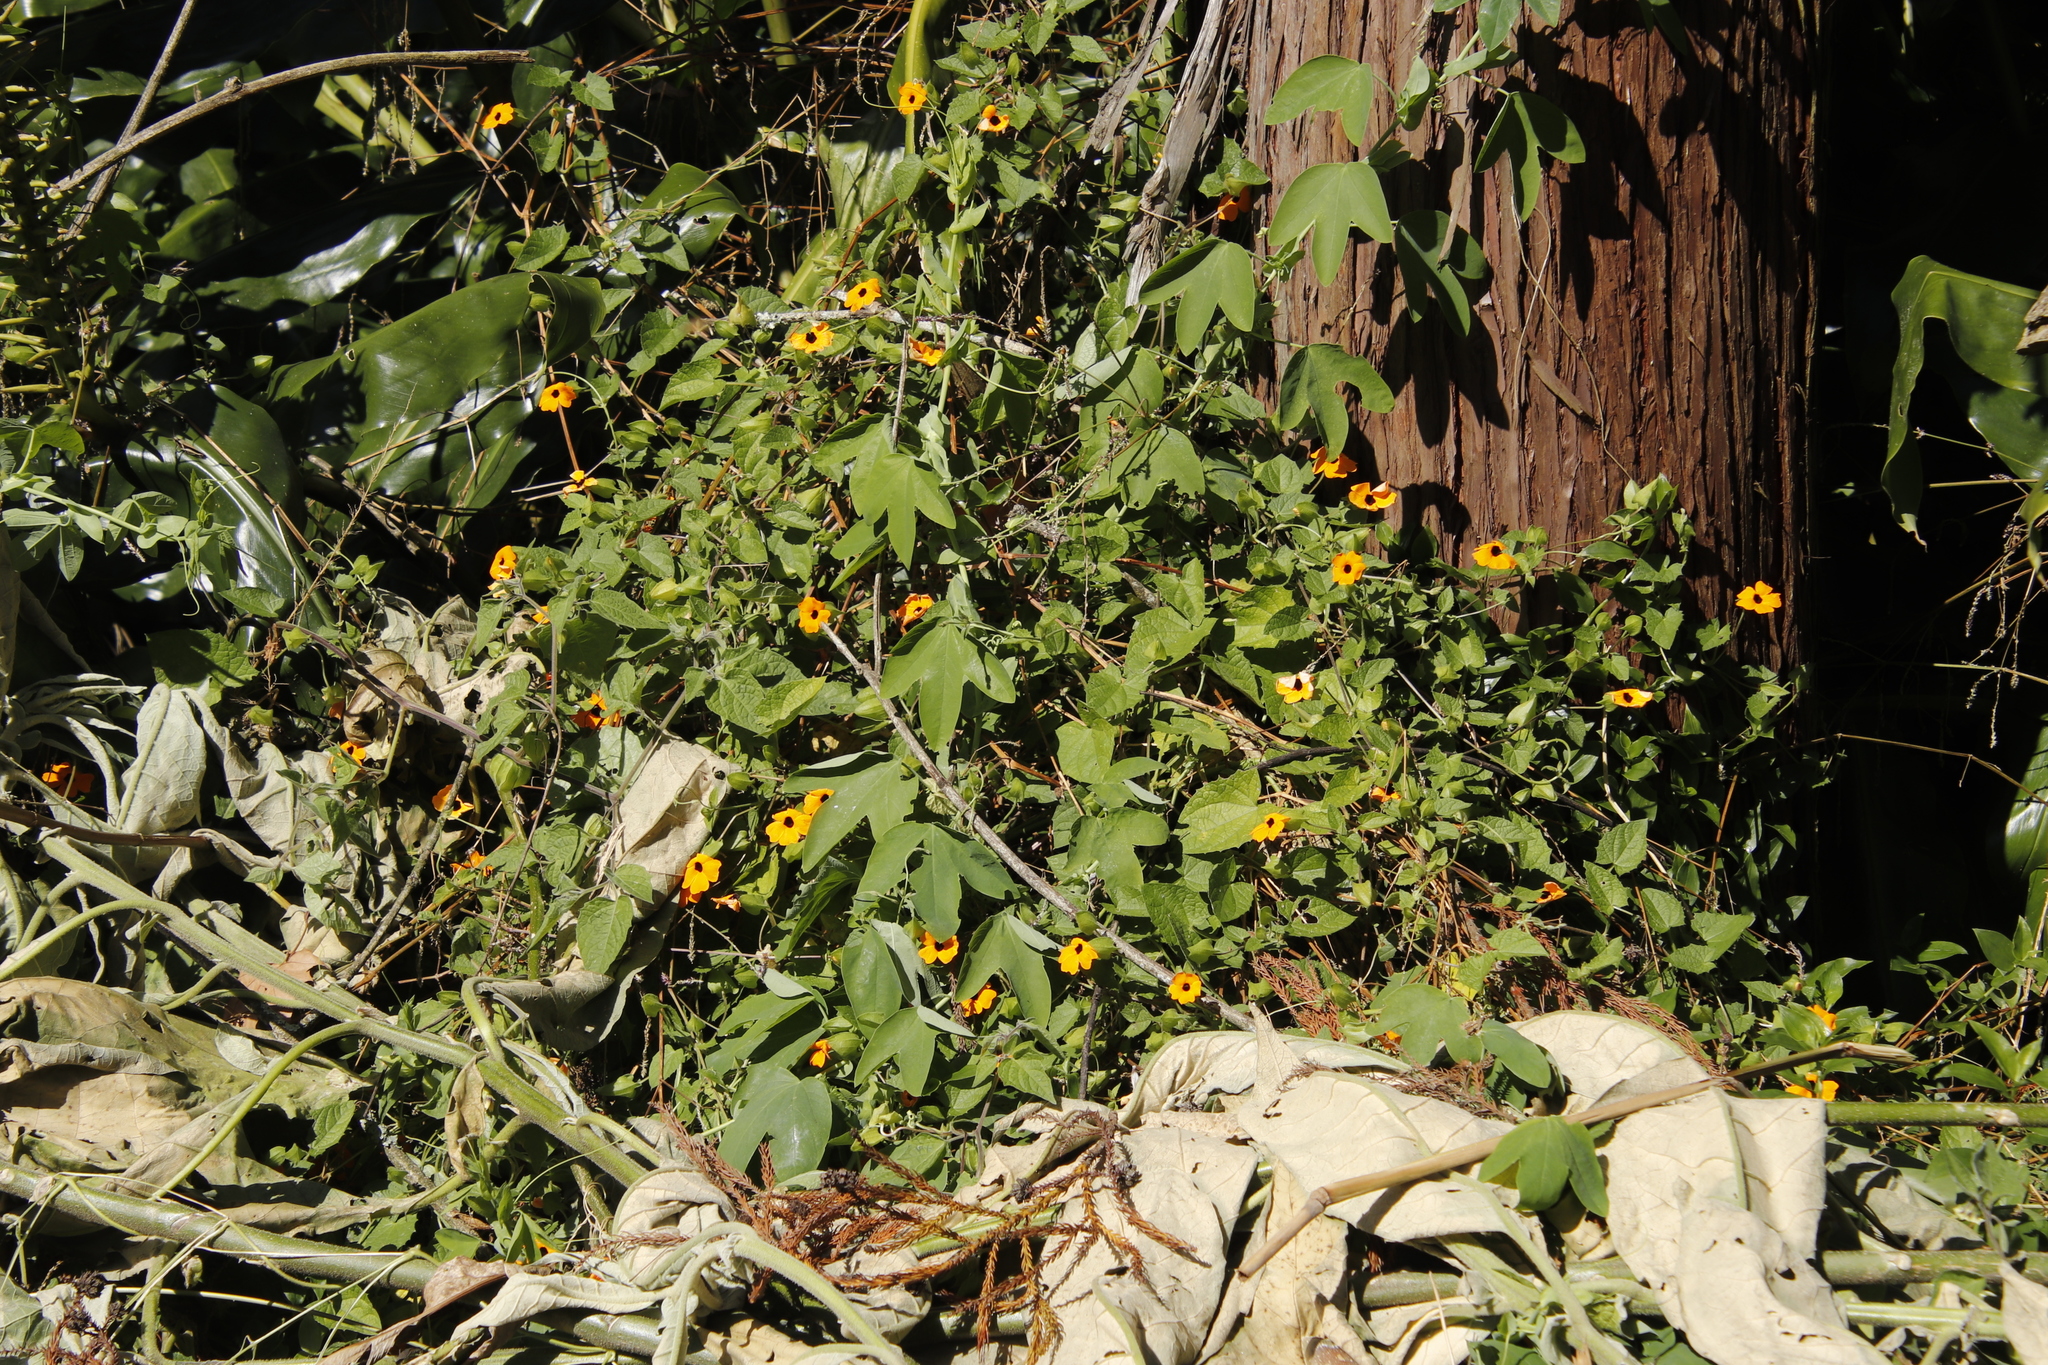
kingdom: Plantae
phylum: Tracheophyta
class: Magnoliopsida
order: Lamiales
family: Acanthaceae
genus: Thunbergia
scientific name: Thunbergia alata
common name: Blackeyed susan vine
